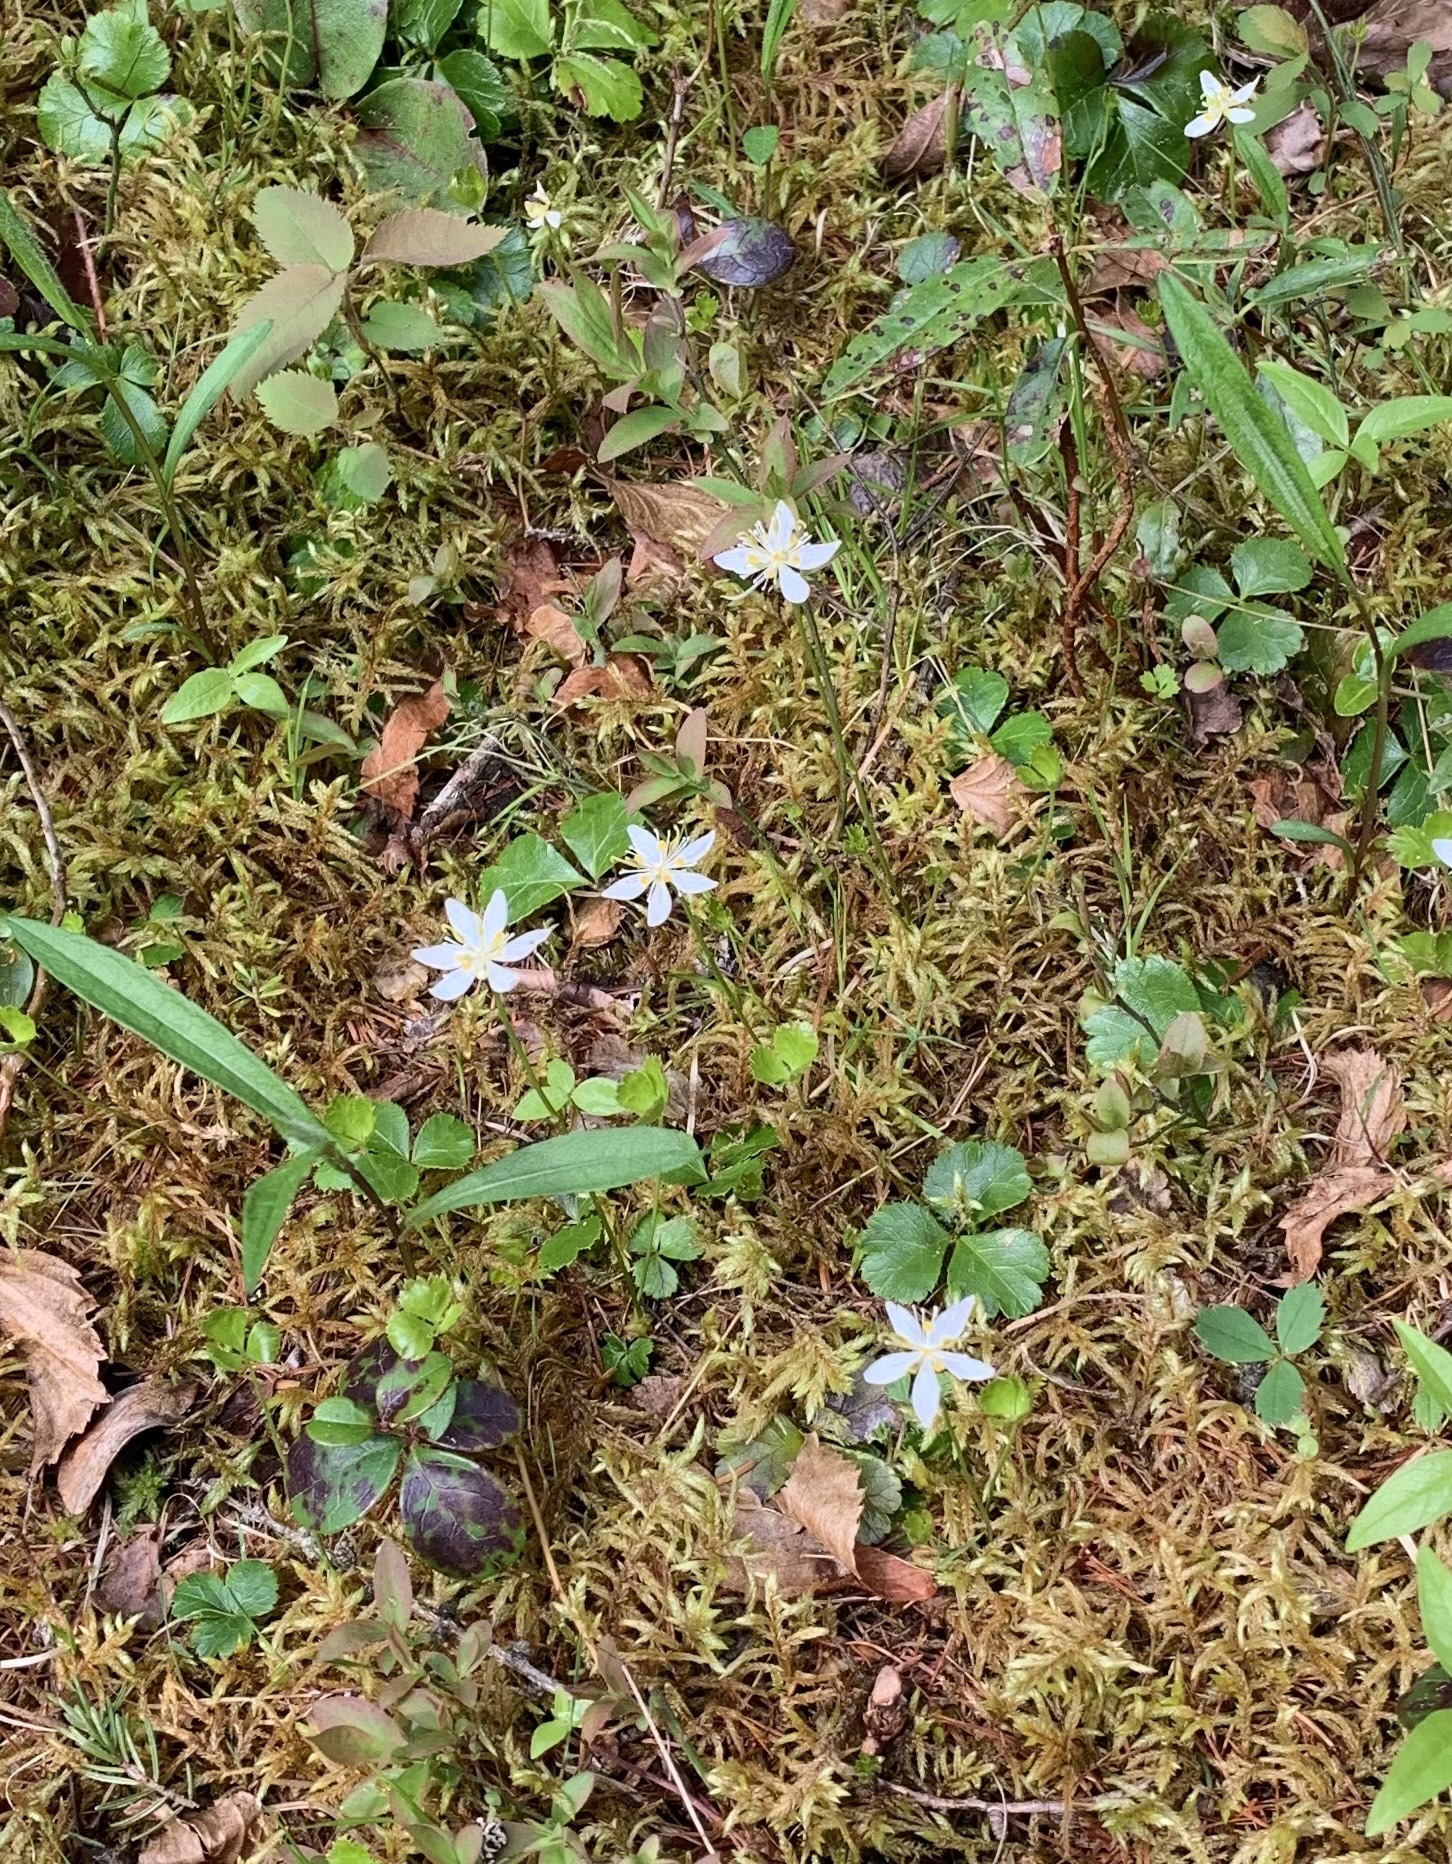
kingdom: Plantae
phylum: Tracheophyta
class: Magnoliopsida
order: Ranunculales
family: Ranunculaceae
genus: Coptis
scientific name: Coptis trifolia
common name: Canker-root
